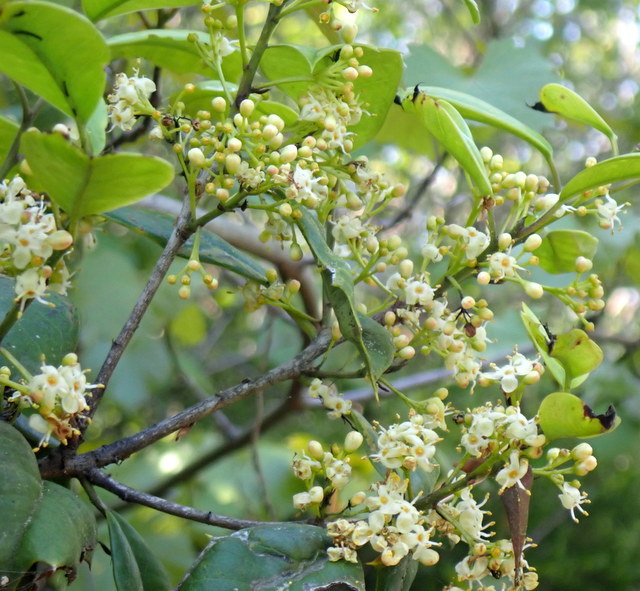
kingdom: Plantae
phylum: Tracheophyta
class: Magnoliopsida
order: Aquifoliales
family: Aquifoliaceae
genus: Ilex
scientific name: Ilex opaca
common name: American holly
